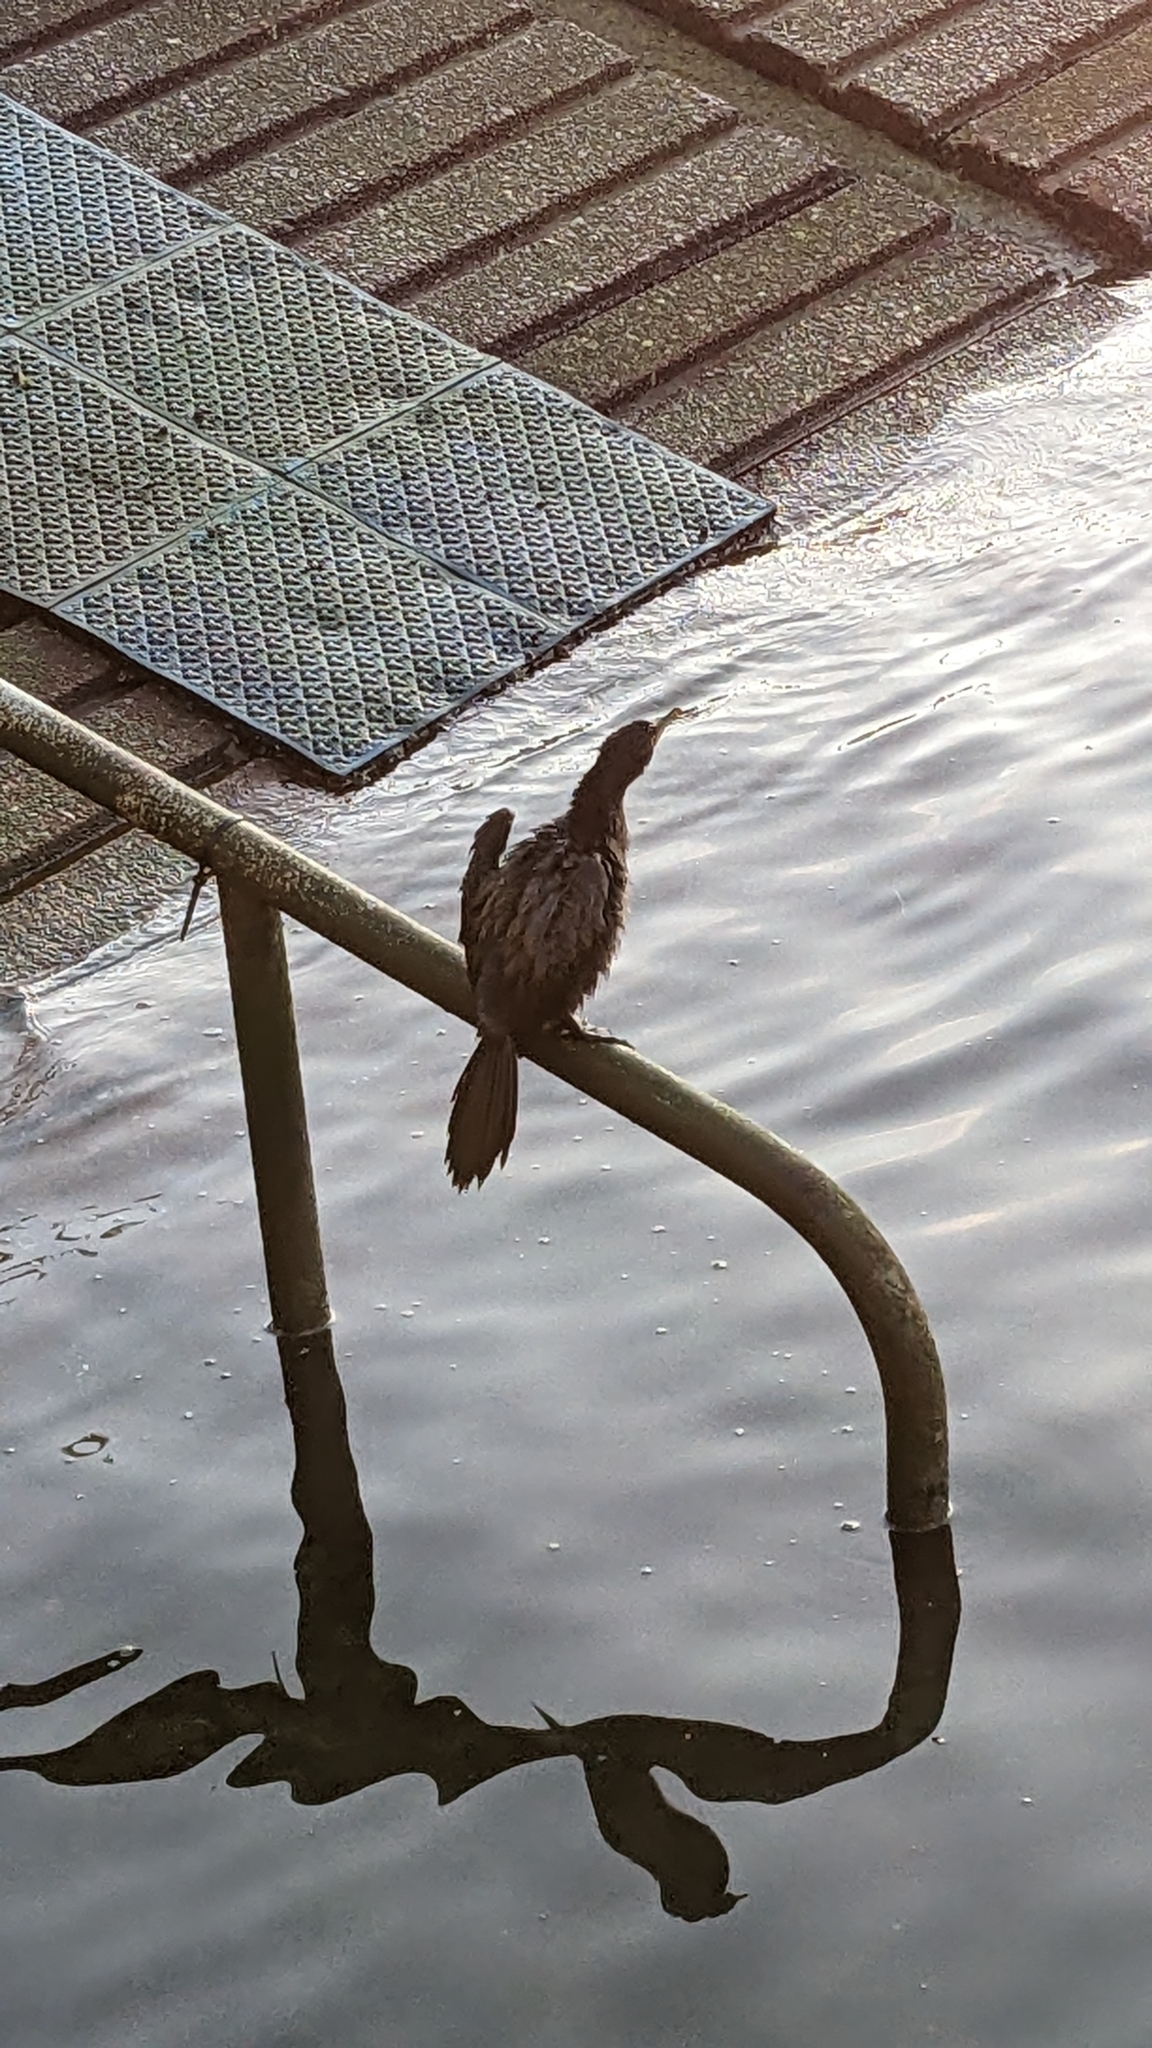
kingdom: Animalia
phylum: Chordata
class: Aves
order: Suliformes
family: Phalacrocoracidae
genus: Microcarbo
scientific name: Microcarbo melanoleucos
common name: Little pied cormorant
